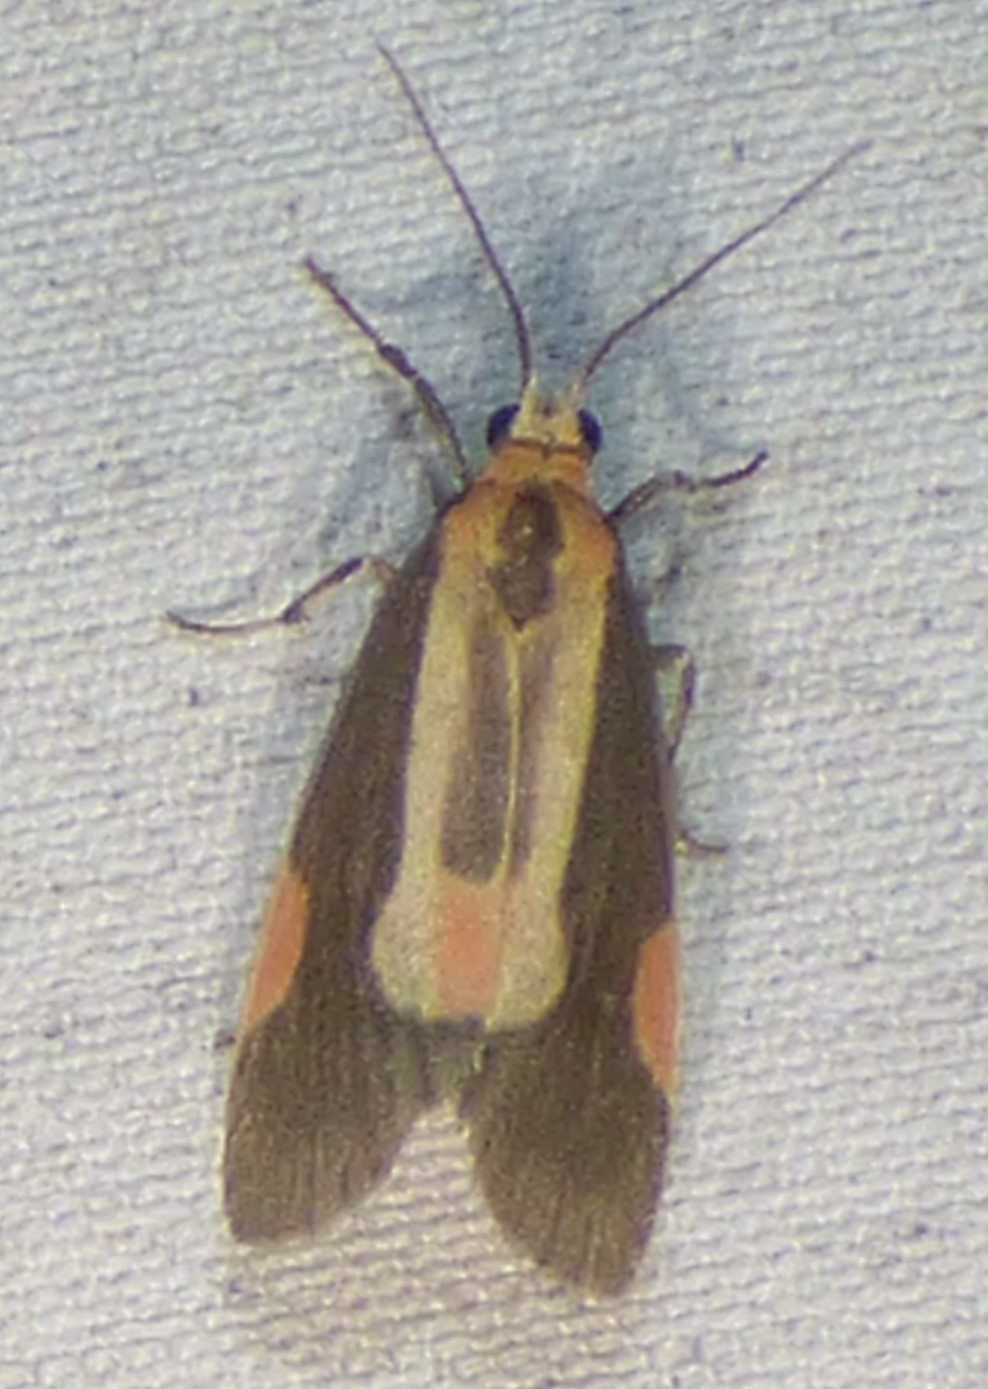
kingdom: Animalia
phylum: Arthropoda
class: Insecta
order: Lepidoptera
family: Erebidae
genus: Cisthene
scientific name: Cisthene packardii
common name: Packard's lichen moth
